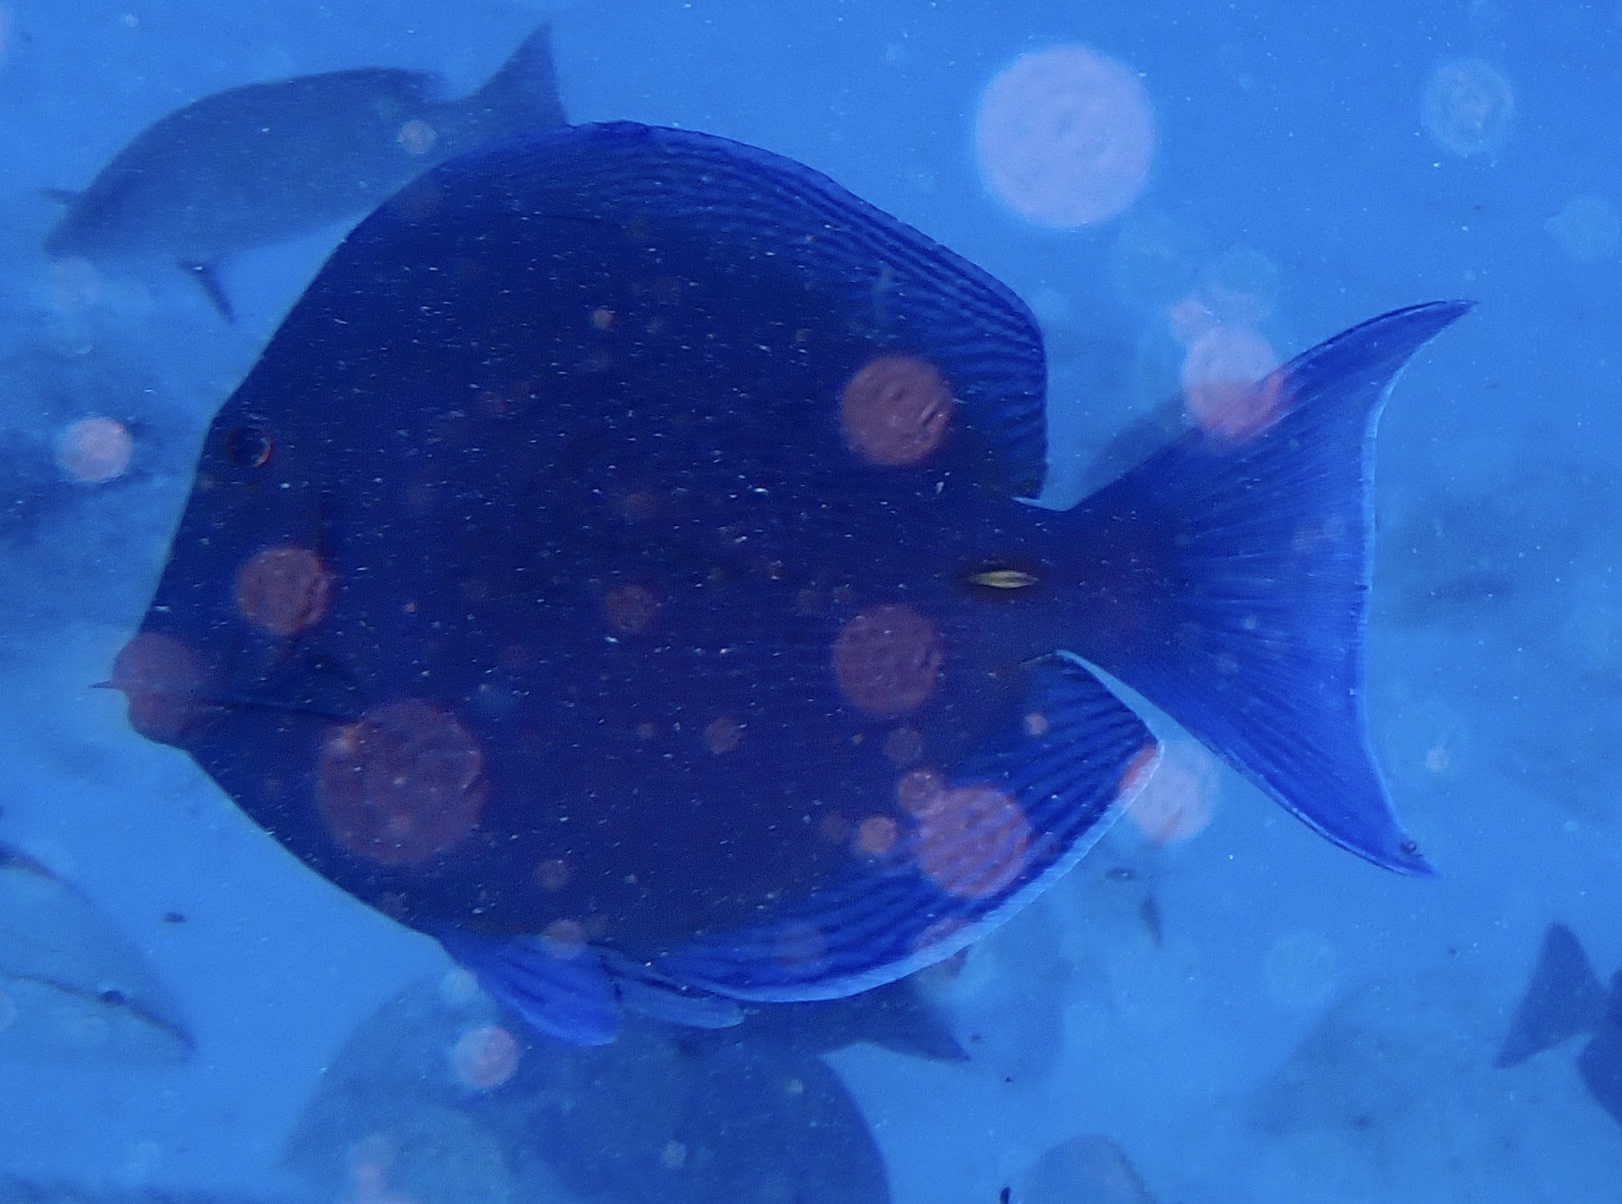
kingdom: Animalia
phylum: Chordata
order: Perciformes
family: Acanthuridae
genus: Acanthurus
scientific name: Acanthurus coeruleus
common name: Blue tang
